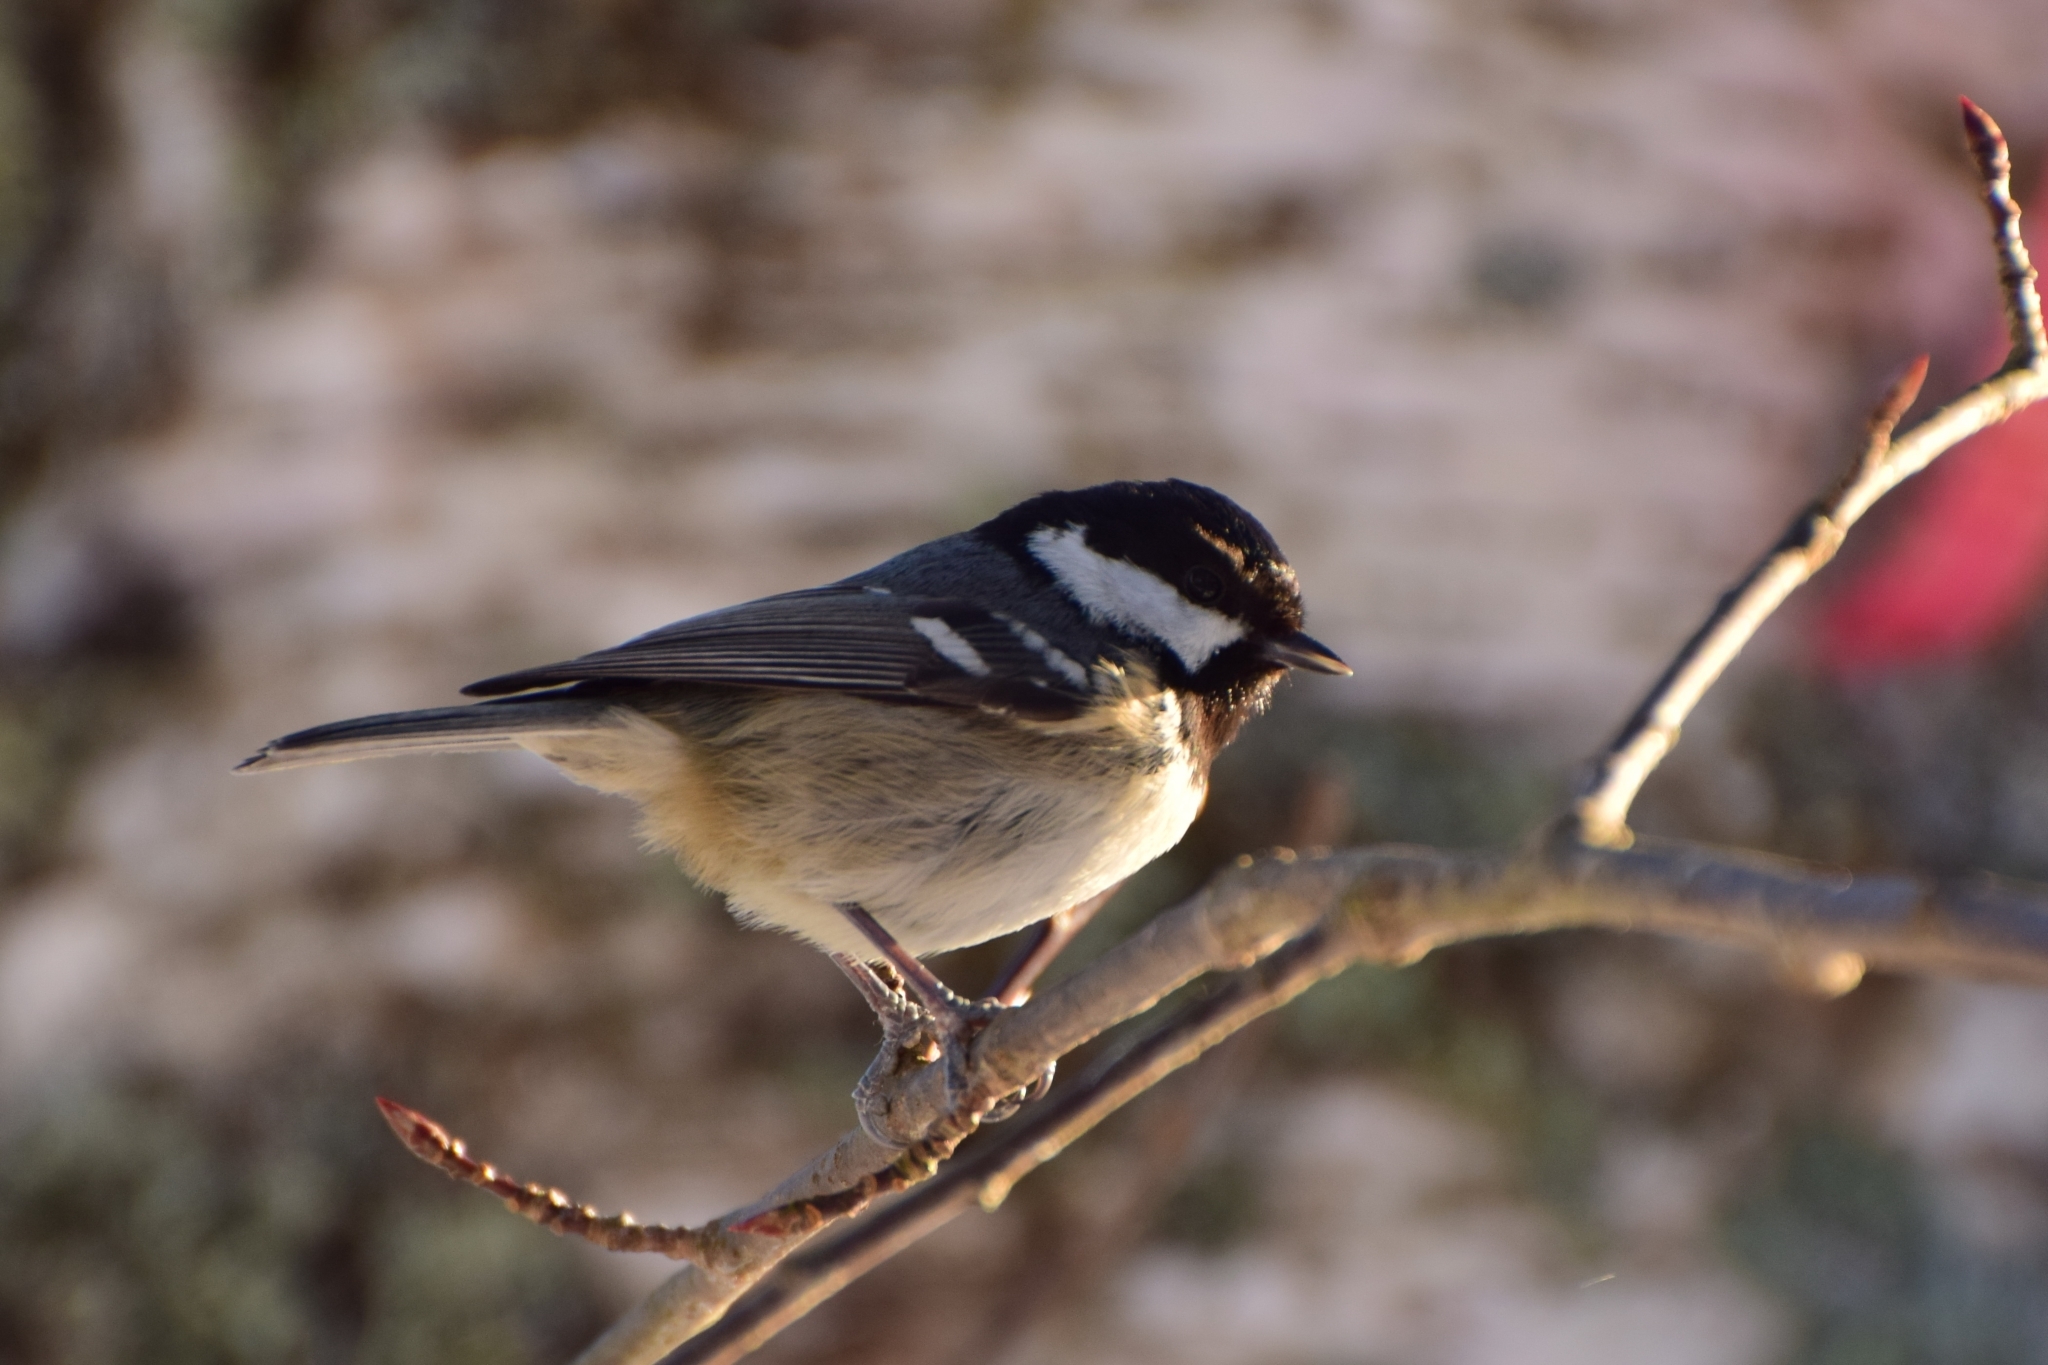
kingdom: Animalia
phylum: Chordata
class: Aves
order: Passeriformes
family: Paridae
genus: Periparus
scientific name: Periparus ater
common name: Coal tit
